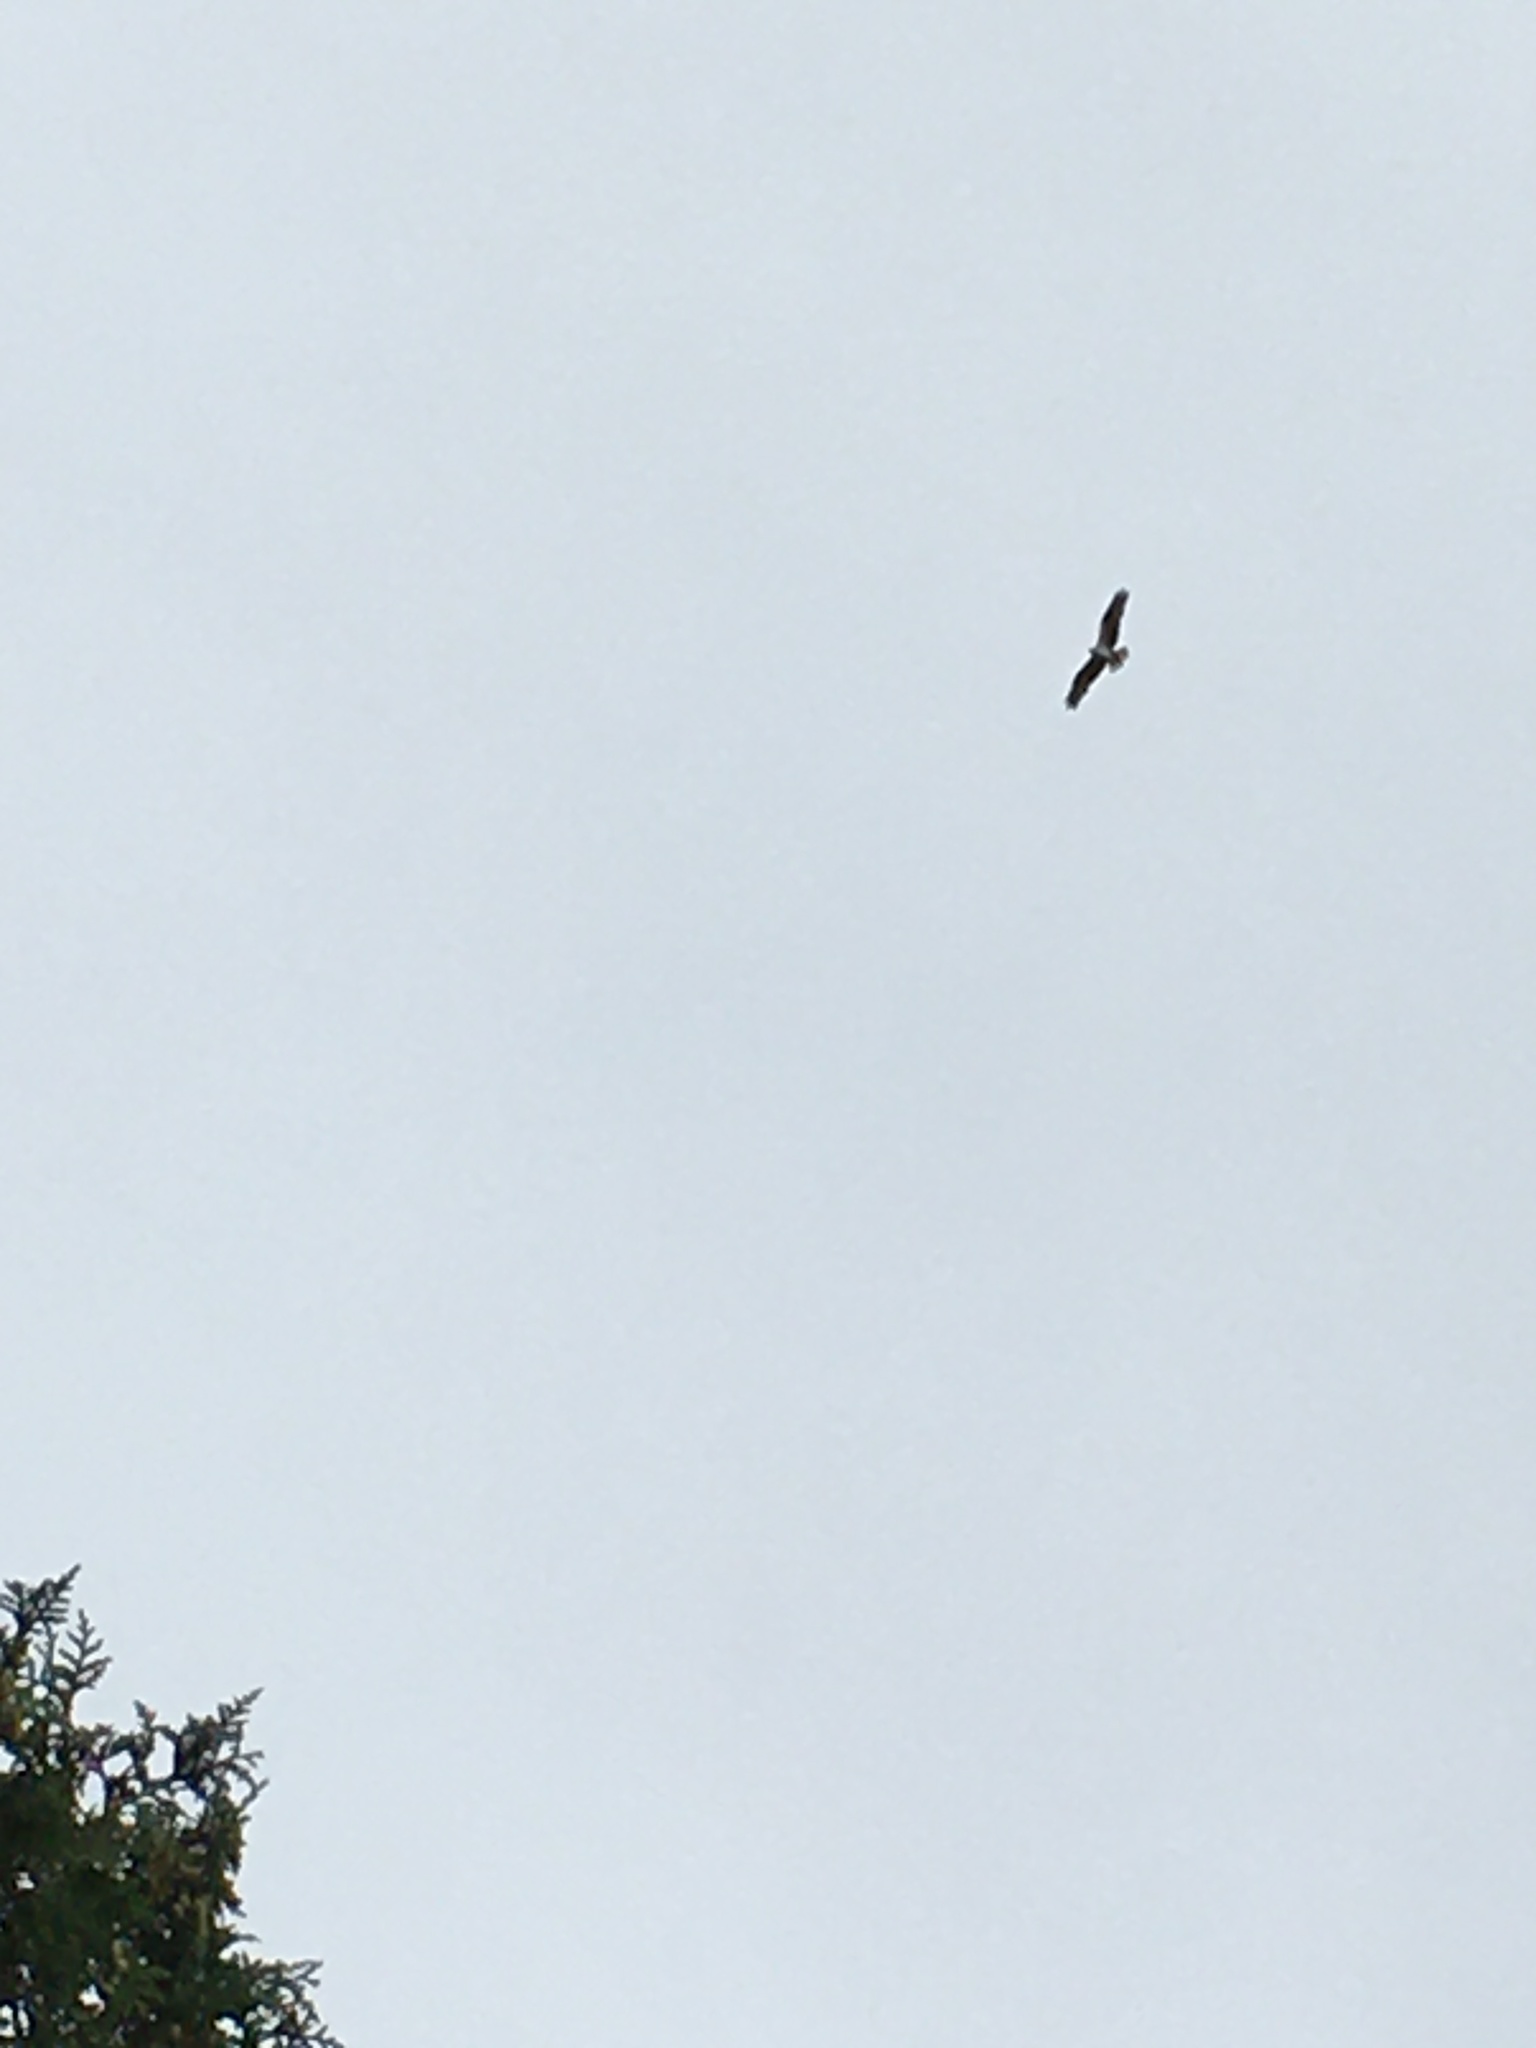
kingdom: Animalia
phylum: Chordata
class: Aves
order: Accipitriformes
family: Pandionidae
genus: Pandion
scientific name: Pandion haliaetus
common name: Osprey
